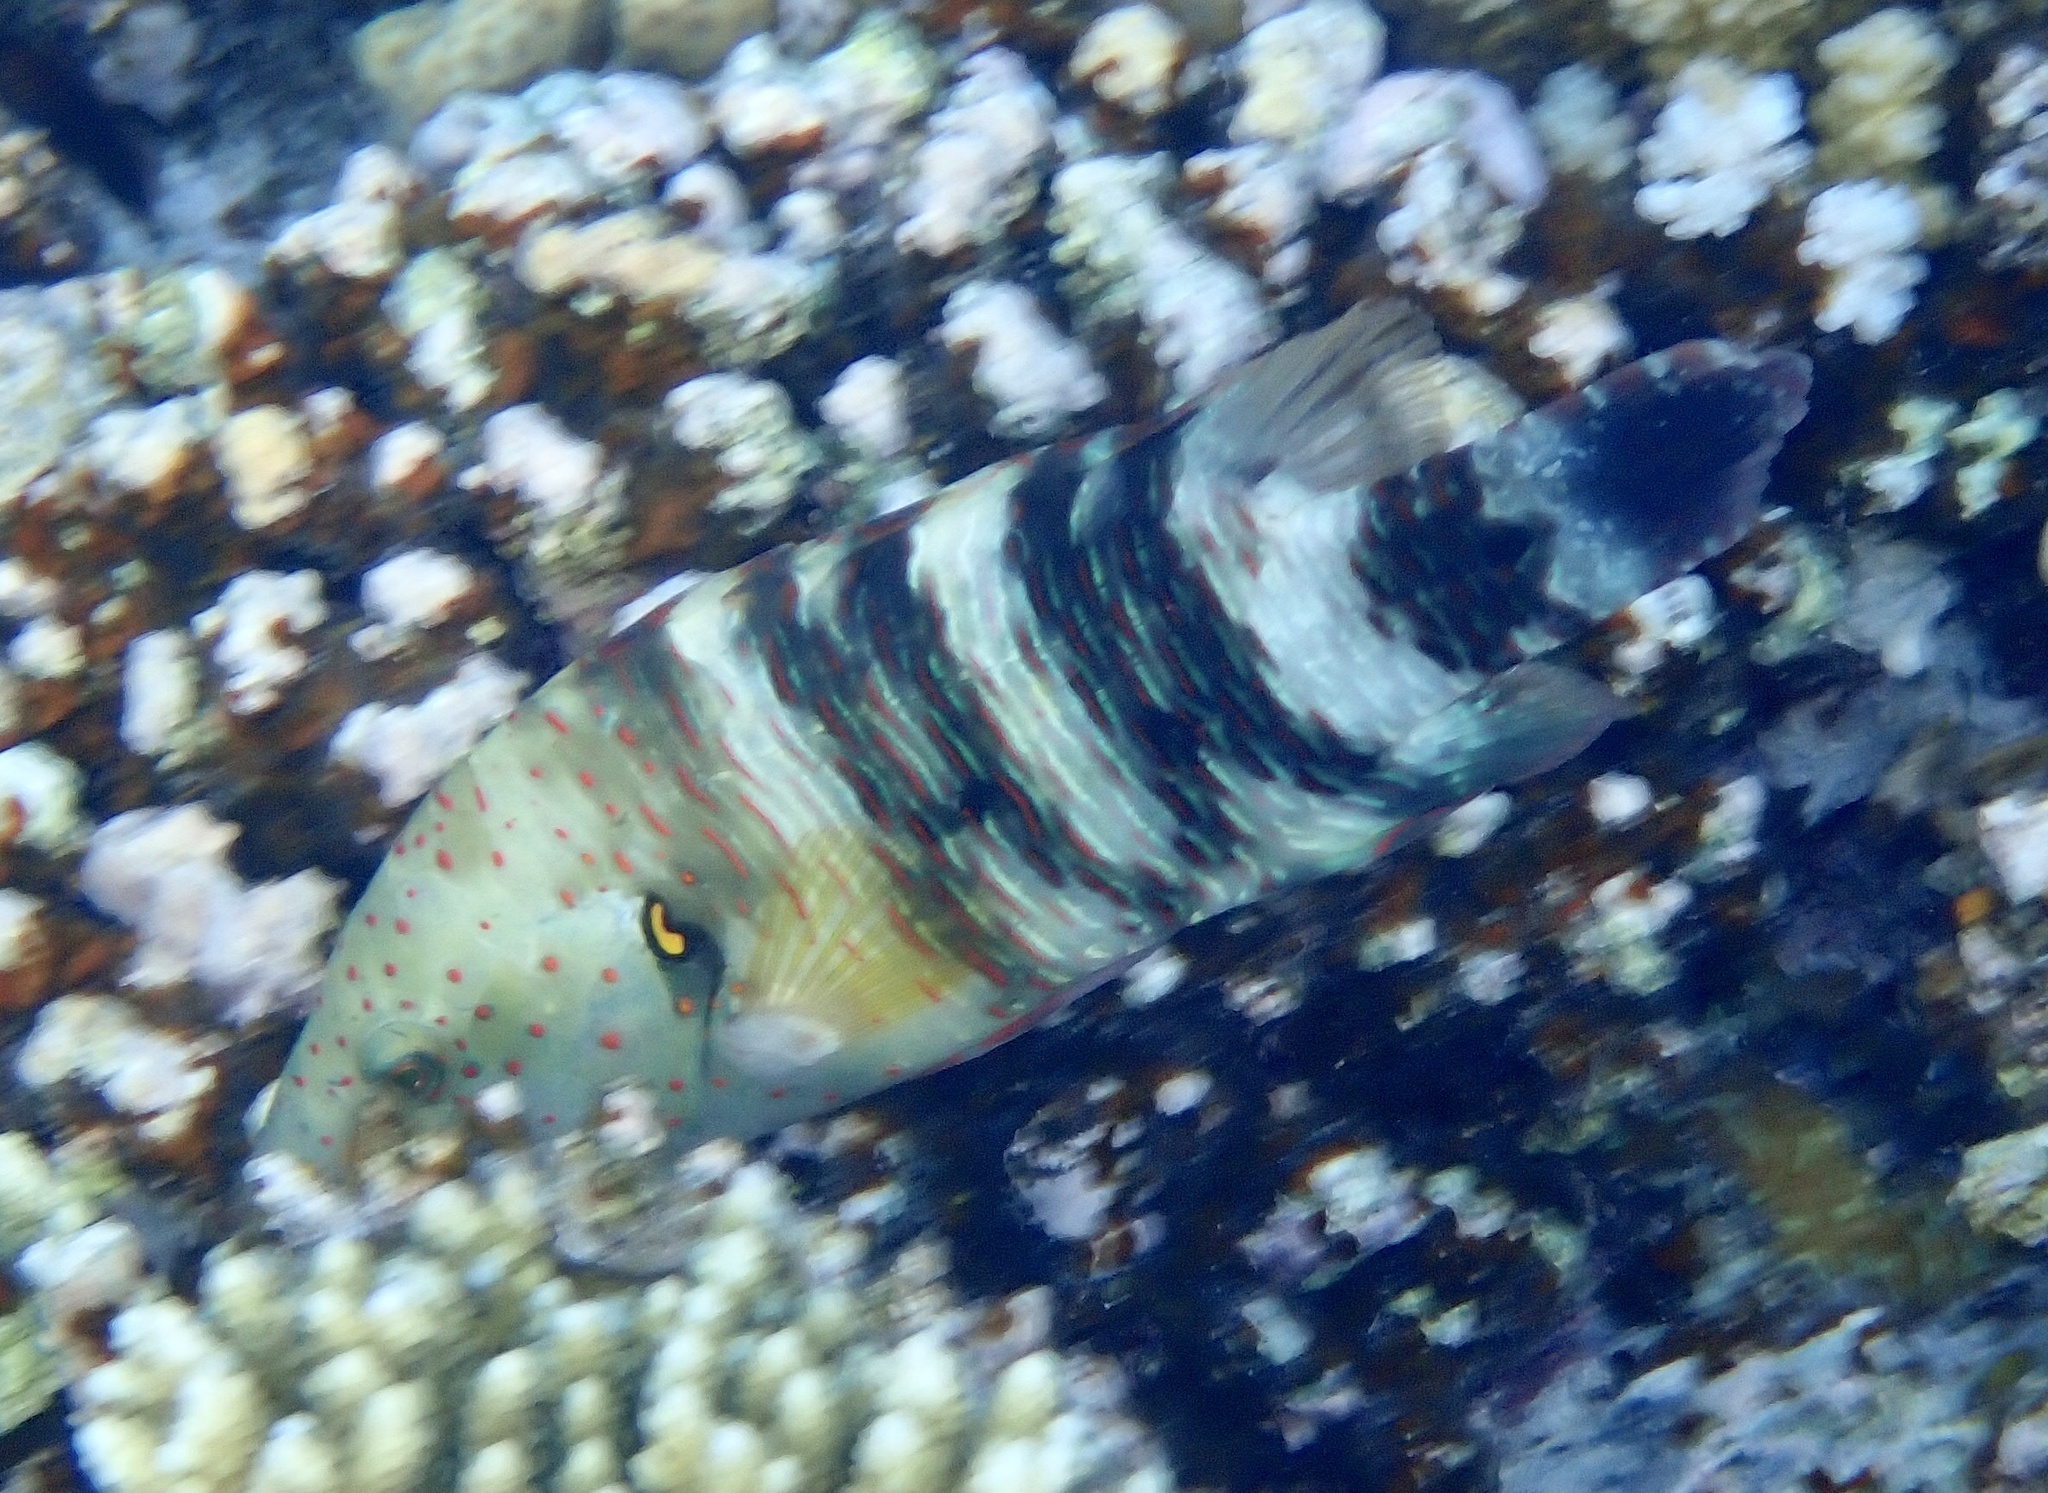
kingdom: Animalia
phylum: Chordata
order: Perciformes
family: Labridae
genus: Cheilinus
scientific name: Cheilinus lunulatus
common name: Broomtail wrasse
